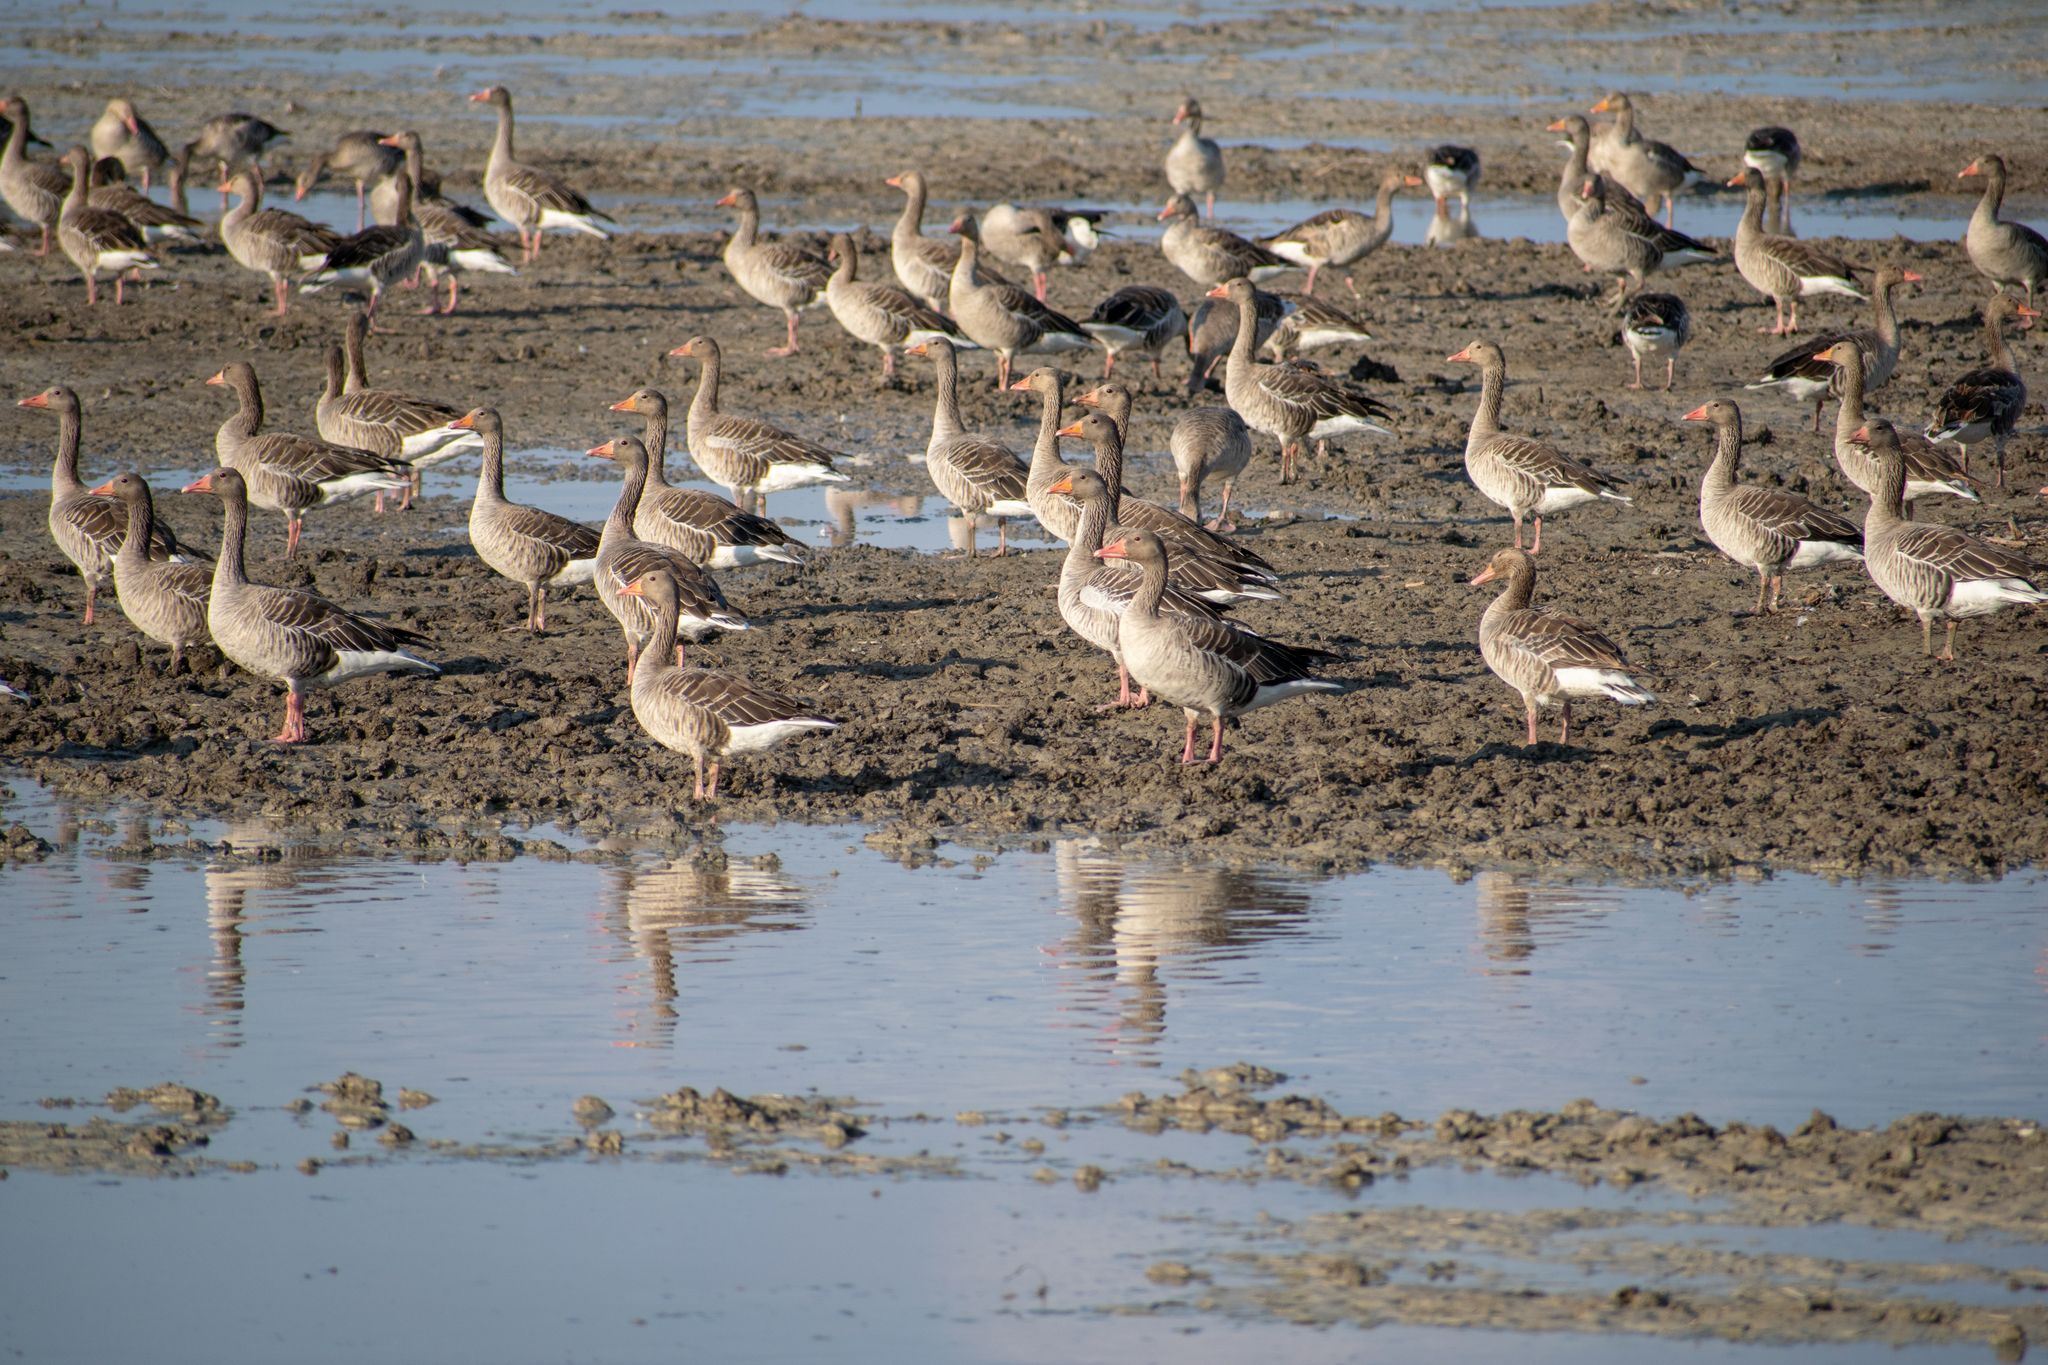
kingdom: Animalia
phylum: Chordata
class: Aves
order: Anseriformes
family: Anatidae
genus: Anser
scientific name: Anser anser
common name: Greylag goose
